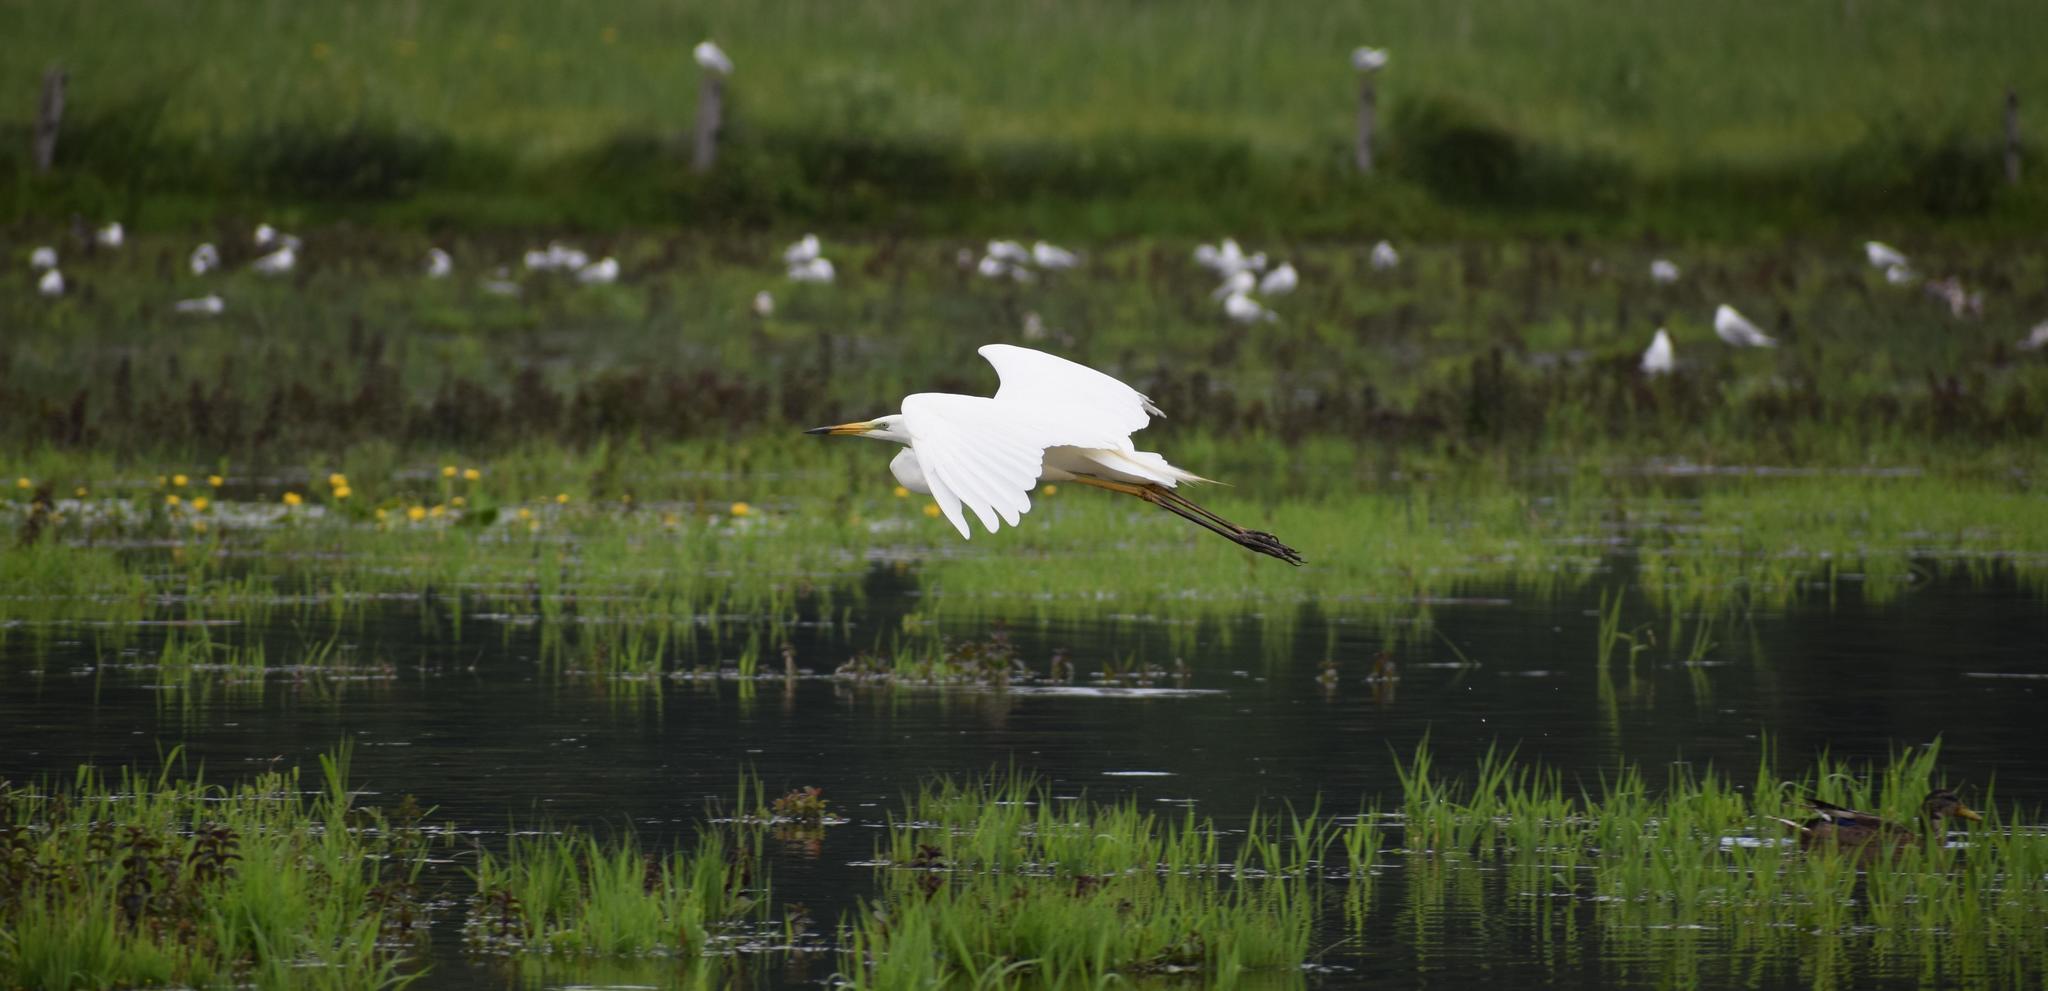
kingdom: Animalia
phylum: Chordata
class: Aves
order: Pelecaniformes
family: Ardeidae
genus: Ardea
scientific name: Ardea alba
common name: Great egret
